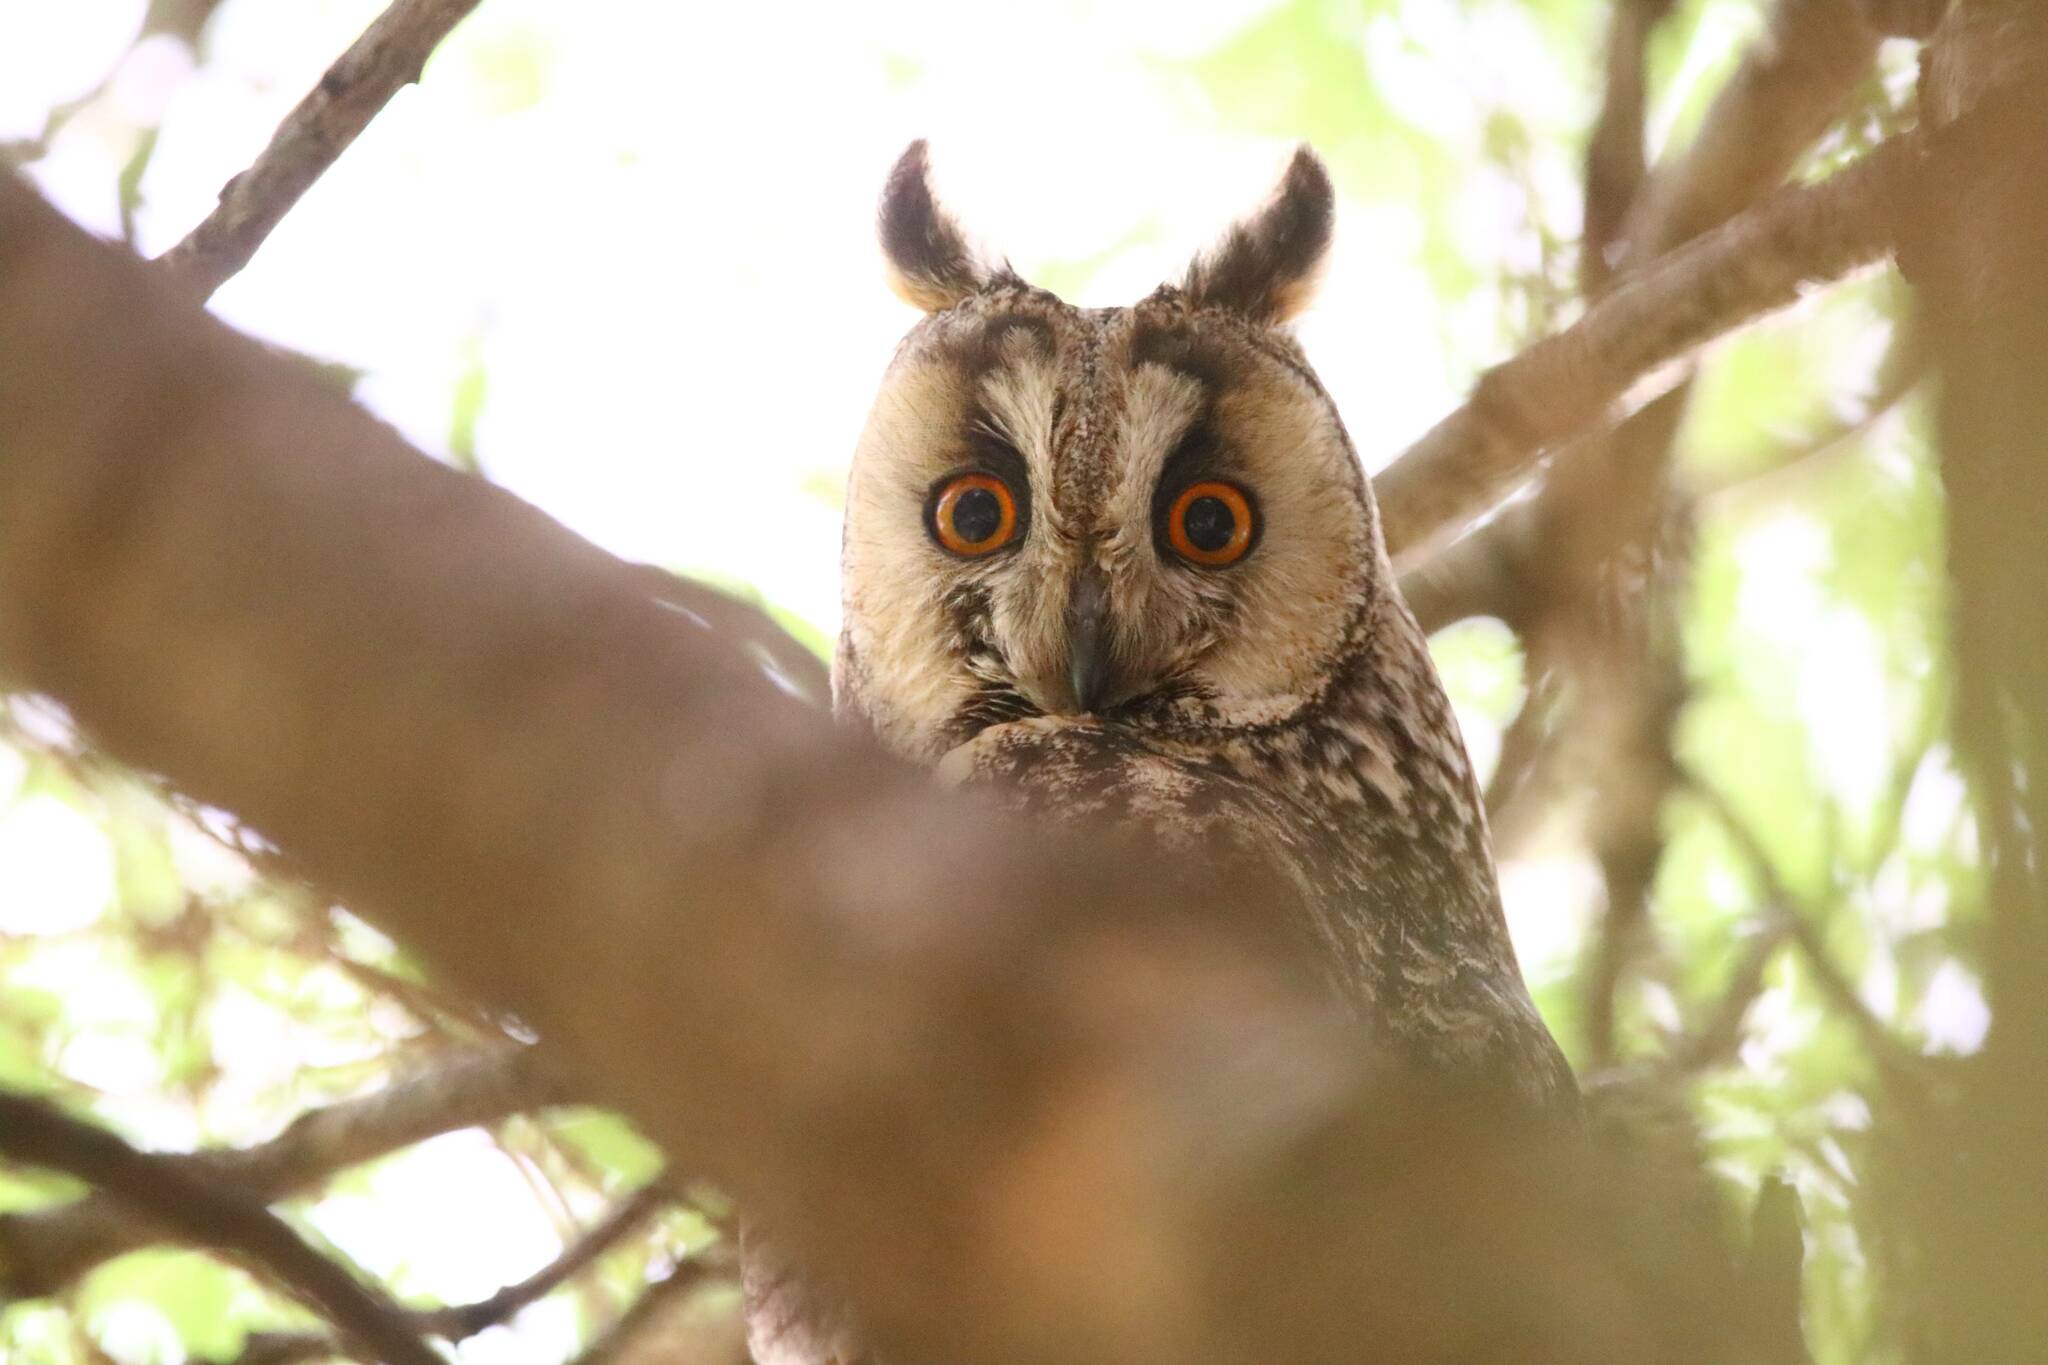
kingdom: Animalia
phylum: Chordata
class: Aves
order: Strigiformes
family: Strigidae
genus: Asio
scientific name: Asio otus
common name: Long-eared owl
